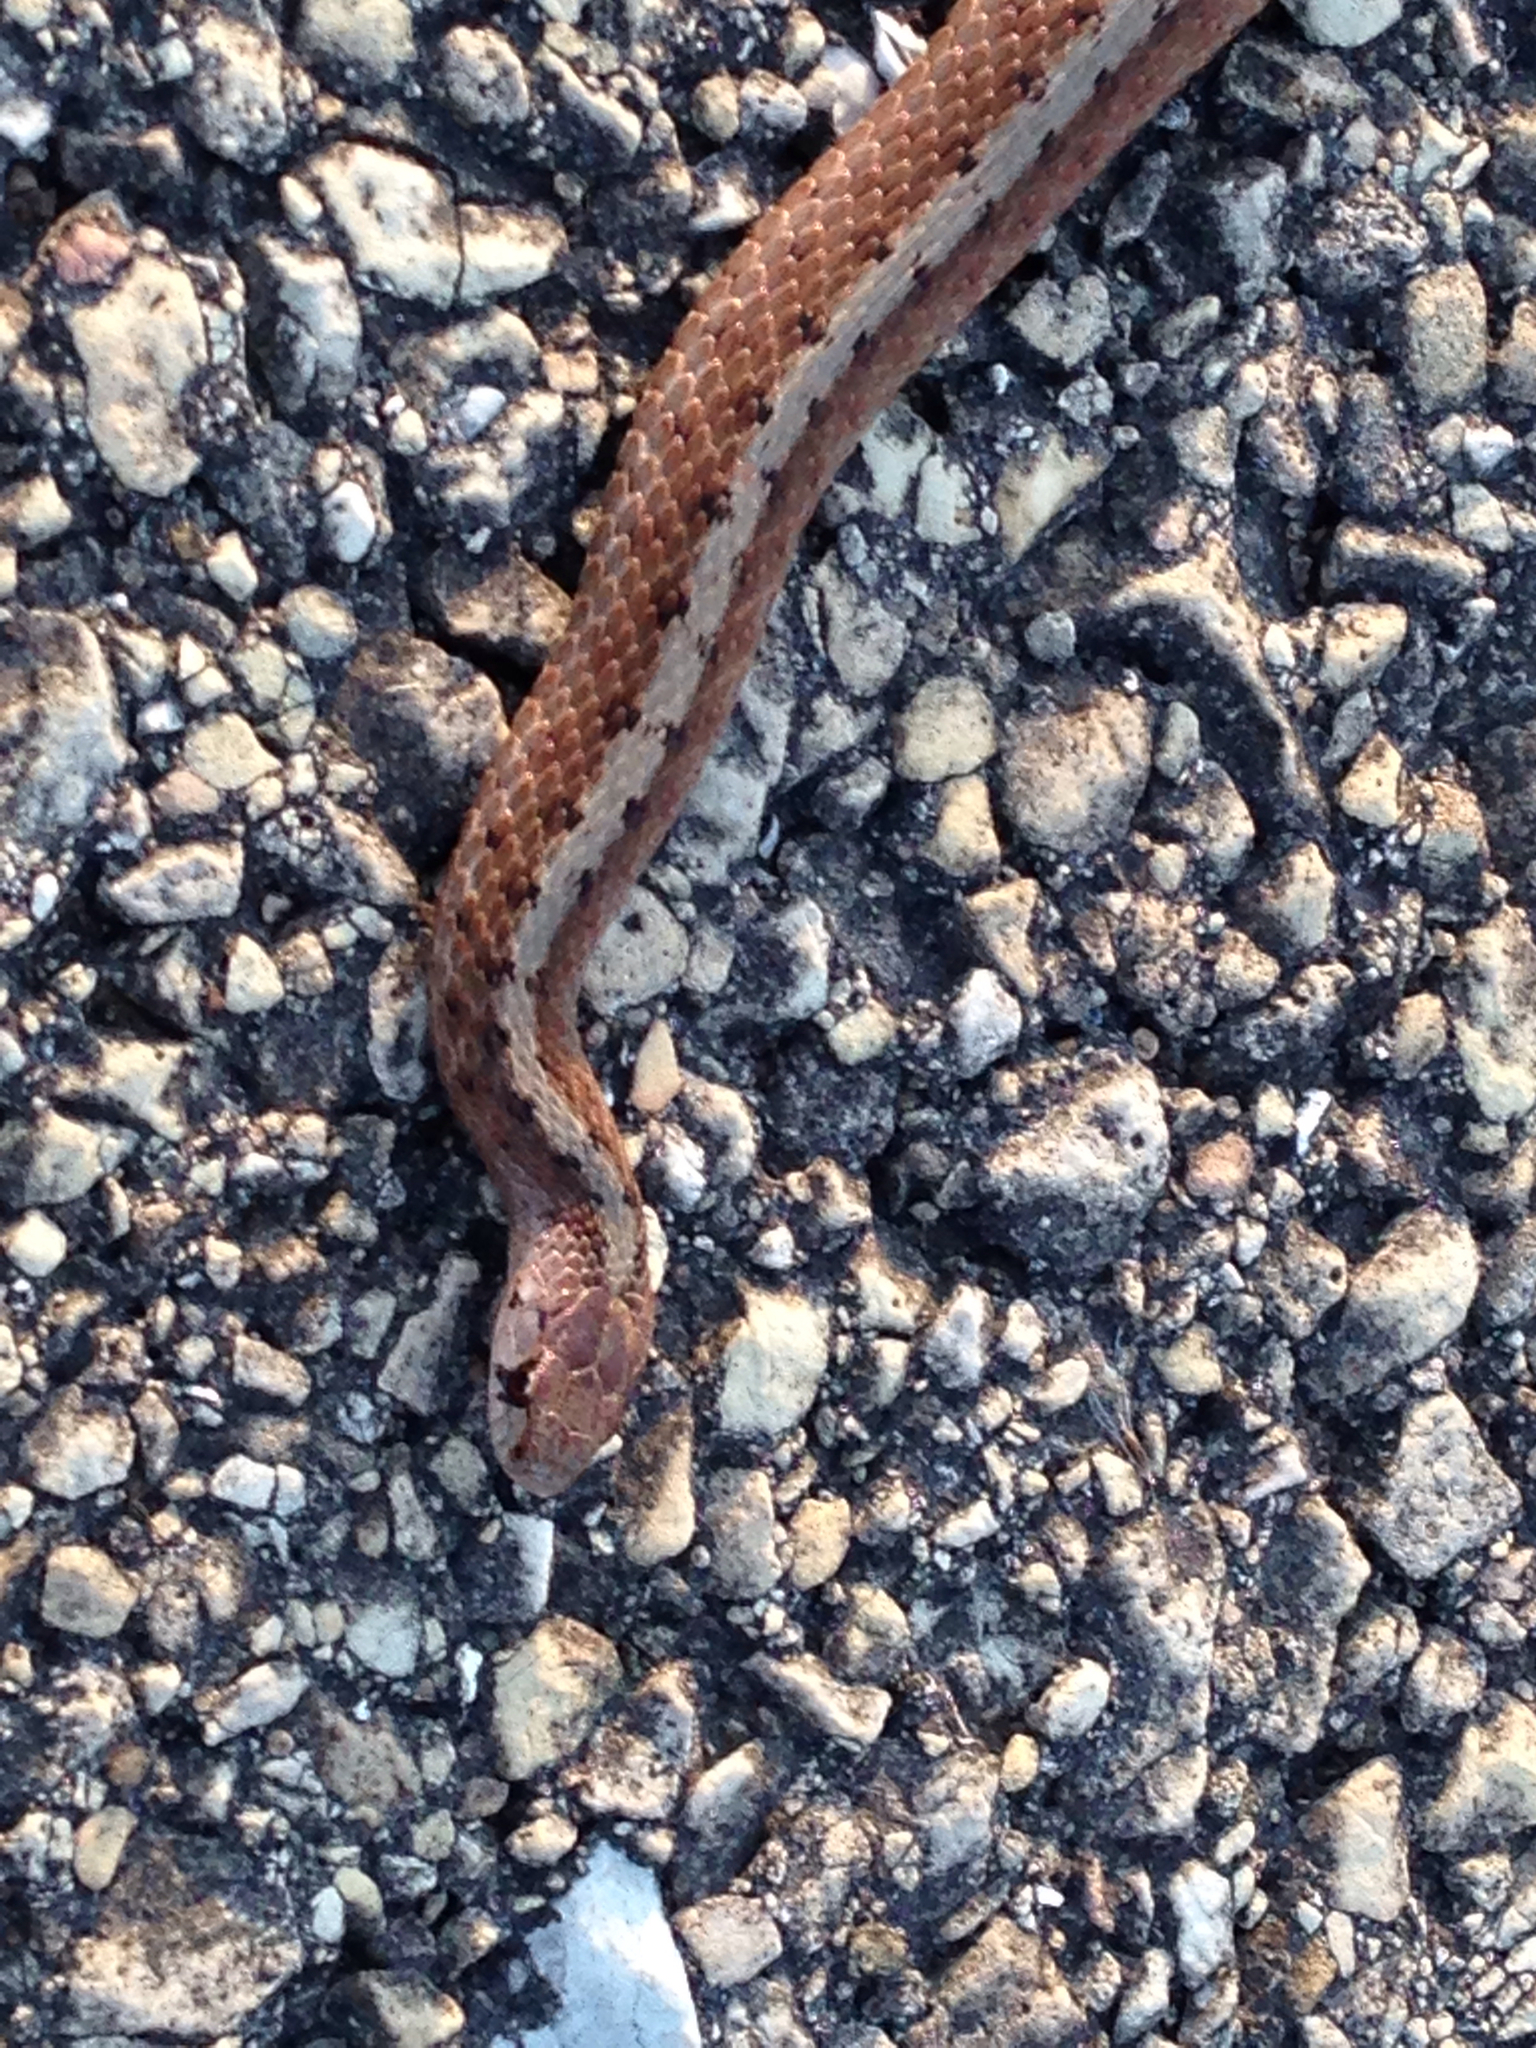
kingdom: Animalia
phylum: Chordata
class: Squamata
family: Colubridae
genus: Storeria
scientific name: Storeria dekayi
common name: (dekay’s) brown snake
